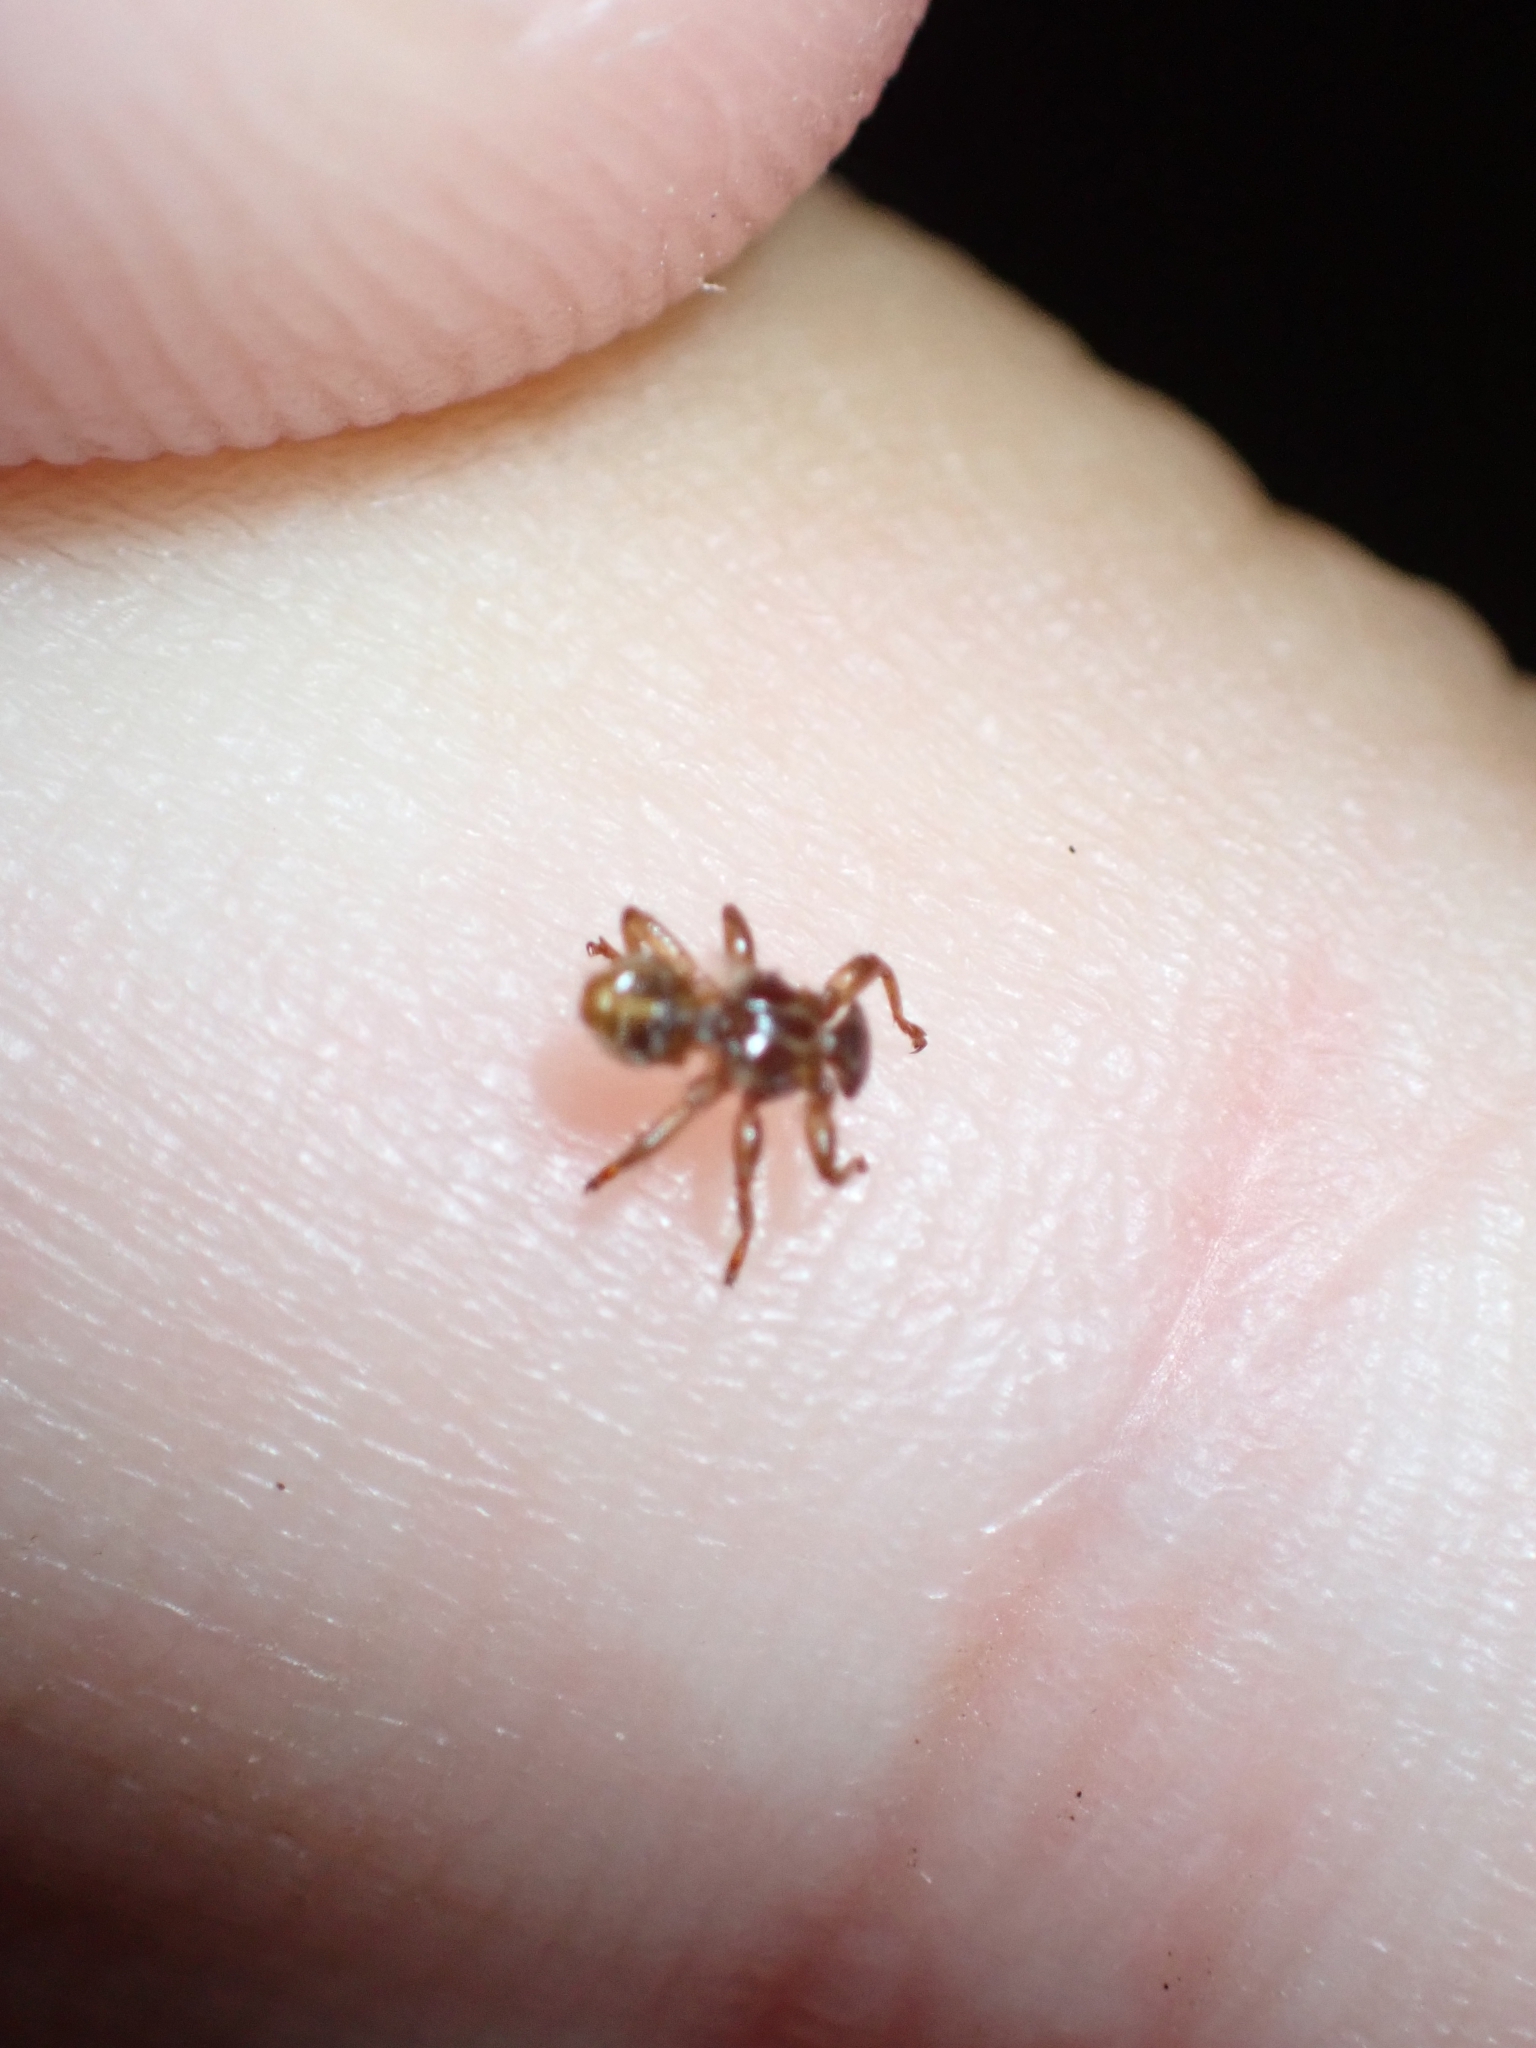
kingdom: Animalia
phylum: Arthropoda
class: Insecta
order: Diptera
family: Hippoboscidae
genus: Lipoptena
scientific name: Lipoptena cervi
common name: Deer ked
